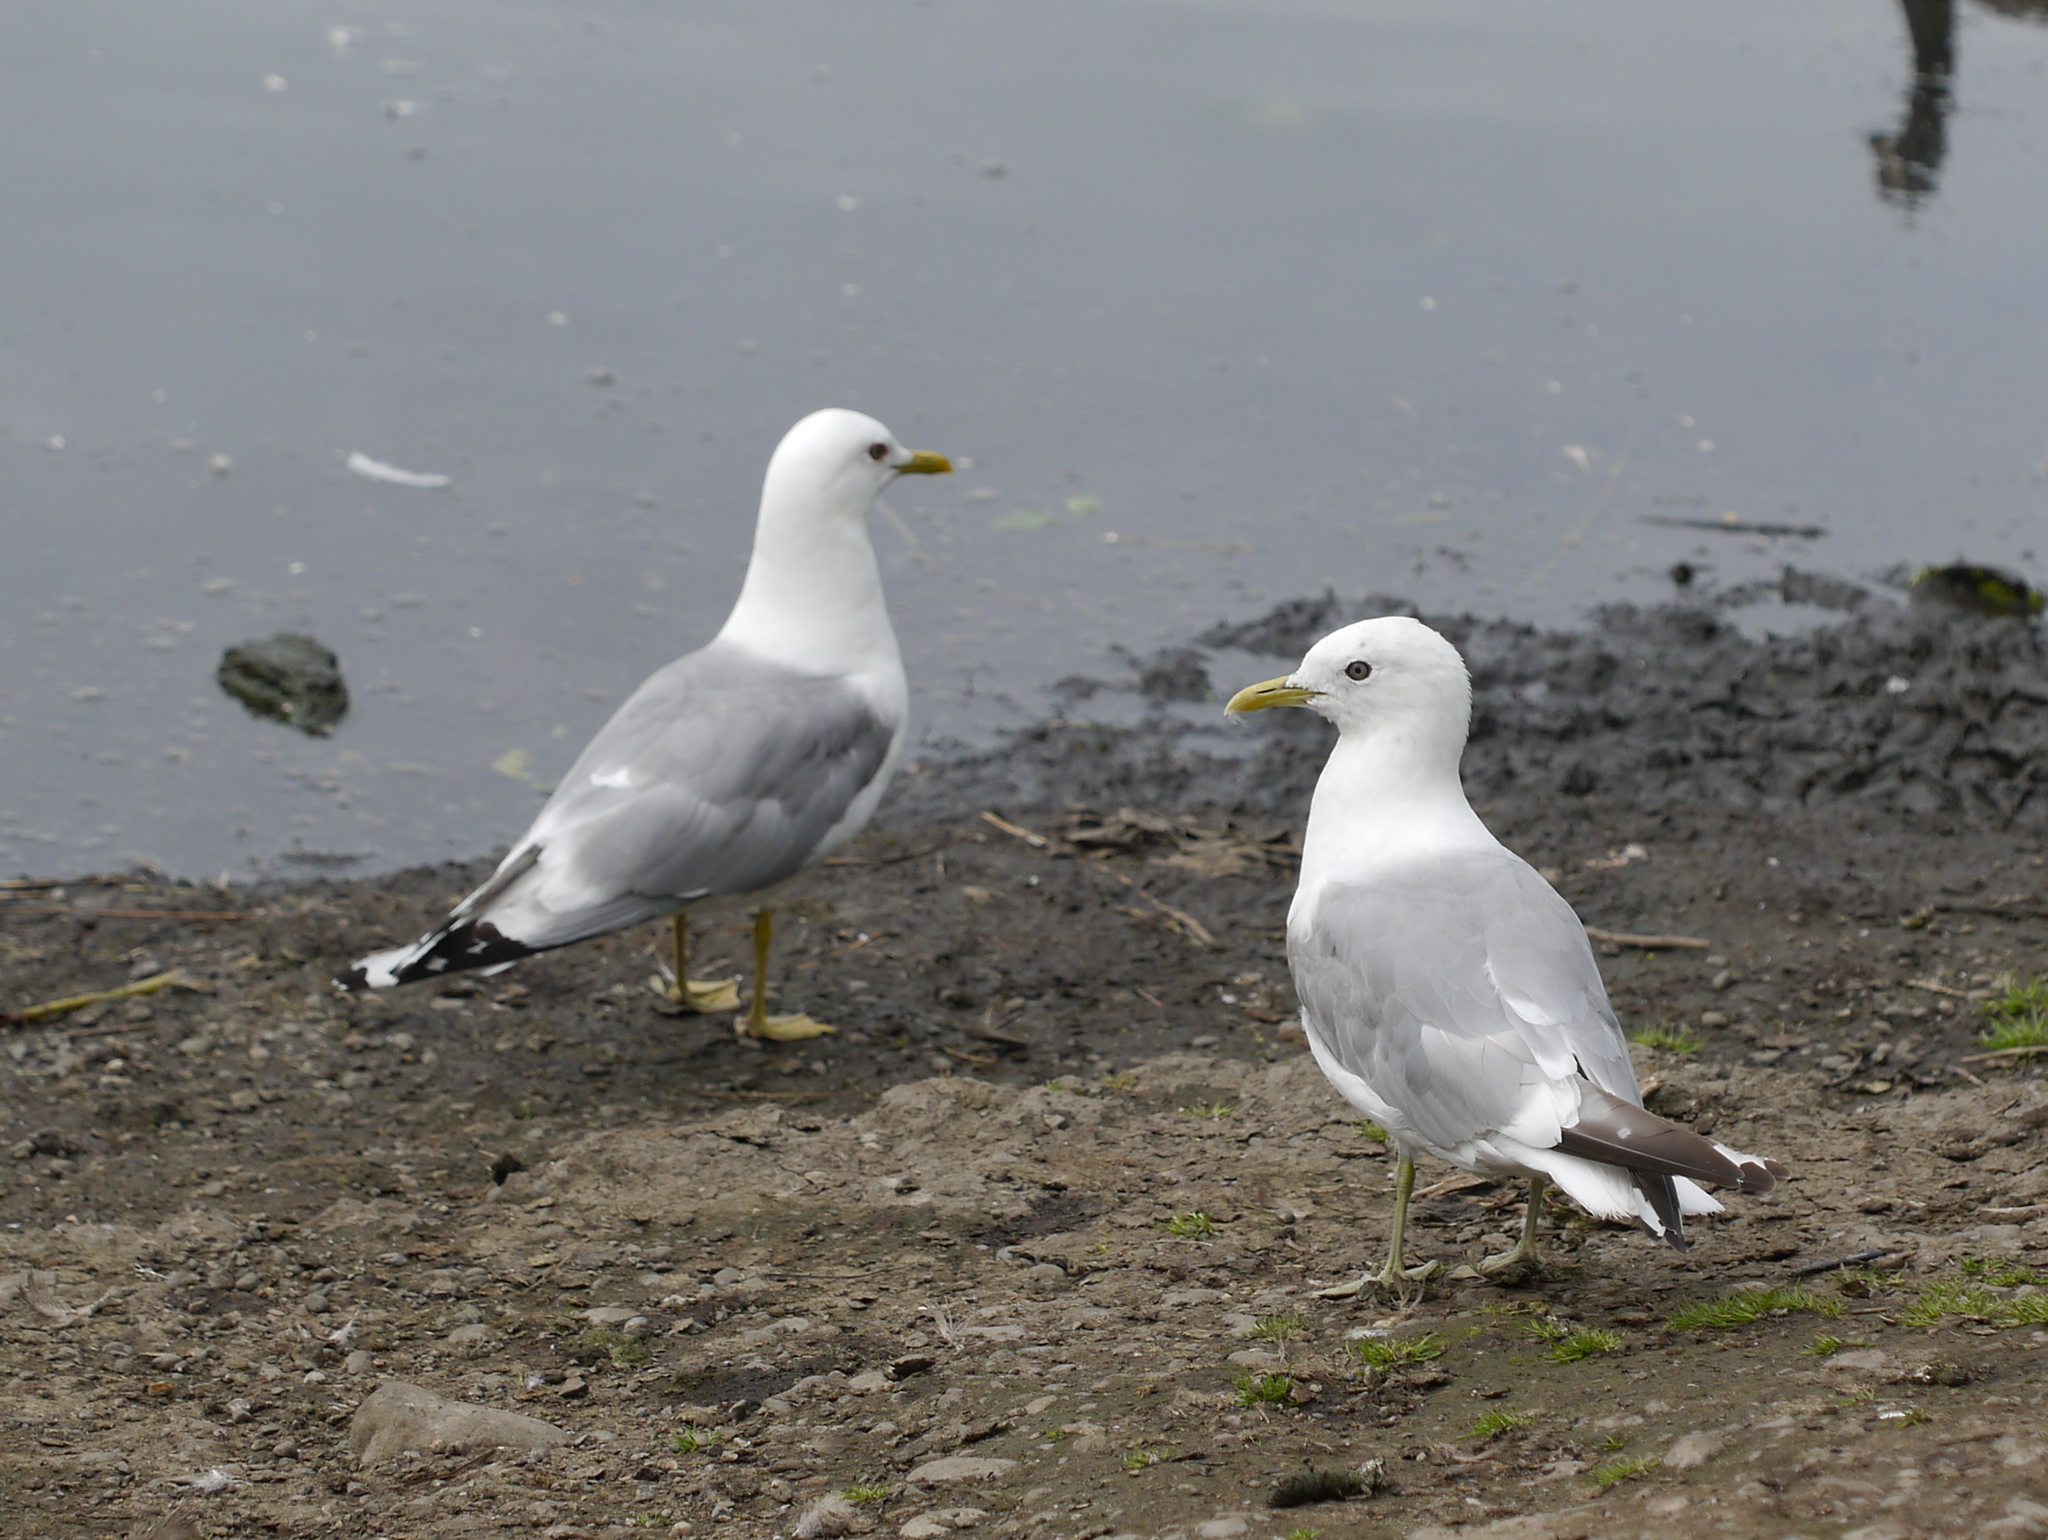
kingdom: Animalia
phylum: Chordata
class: Aves
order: Charadriiformes
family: Laridae
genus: Larus
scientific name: Larus brachyrhynchus
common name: Short-billed gull
